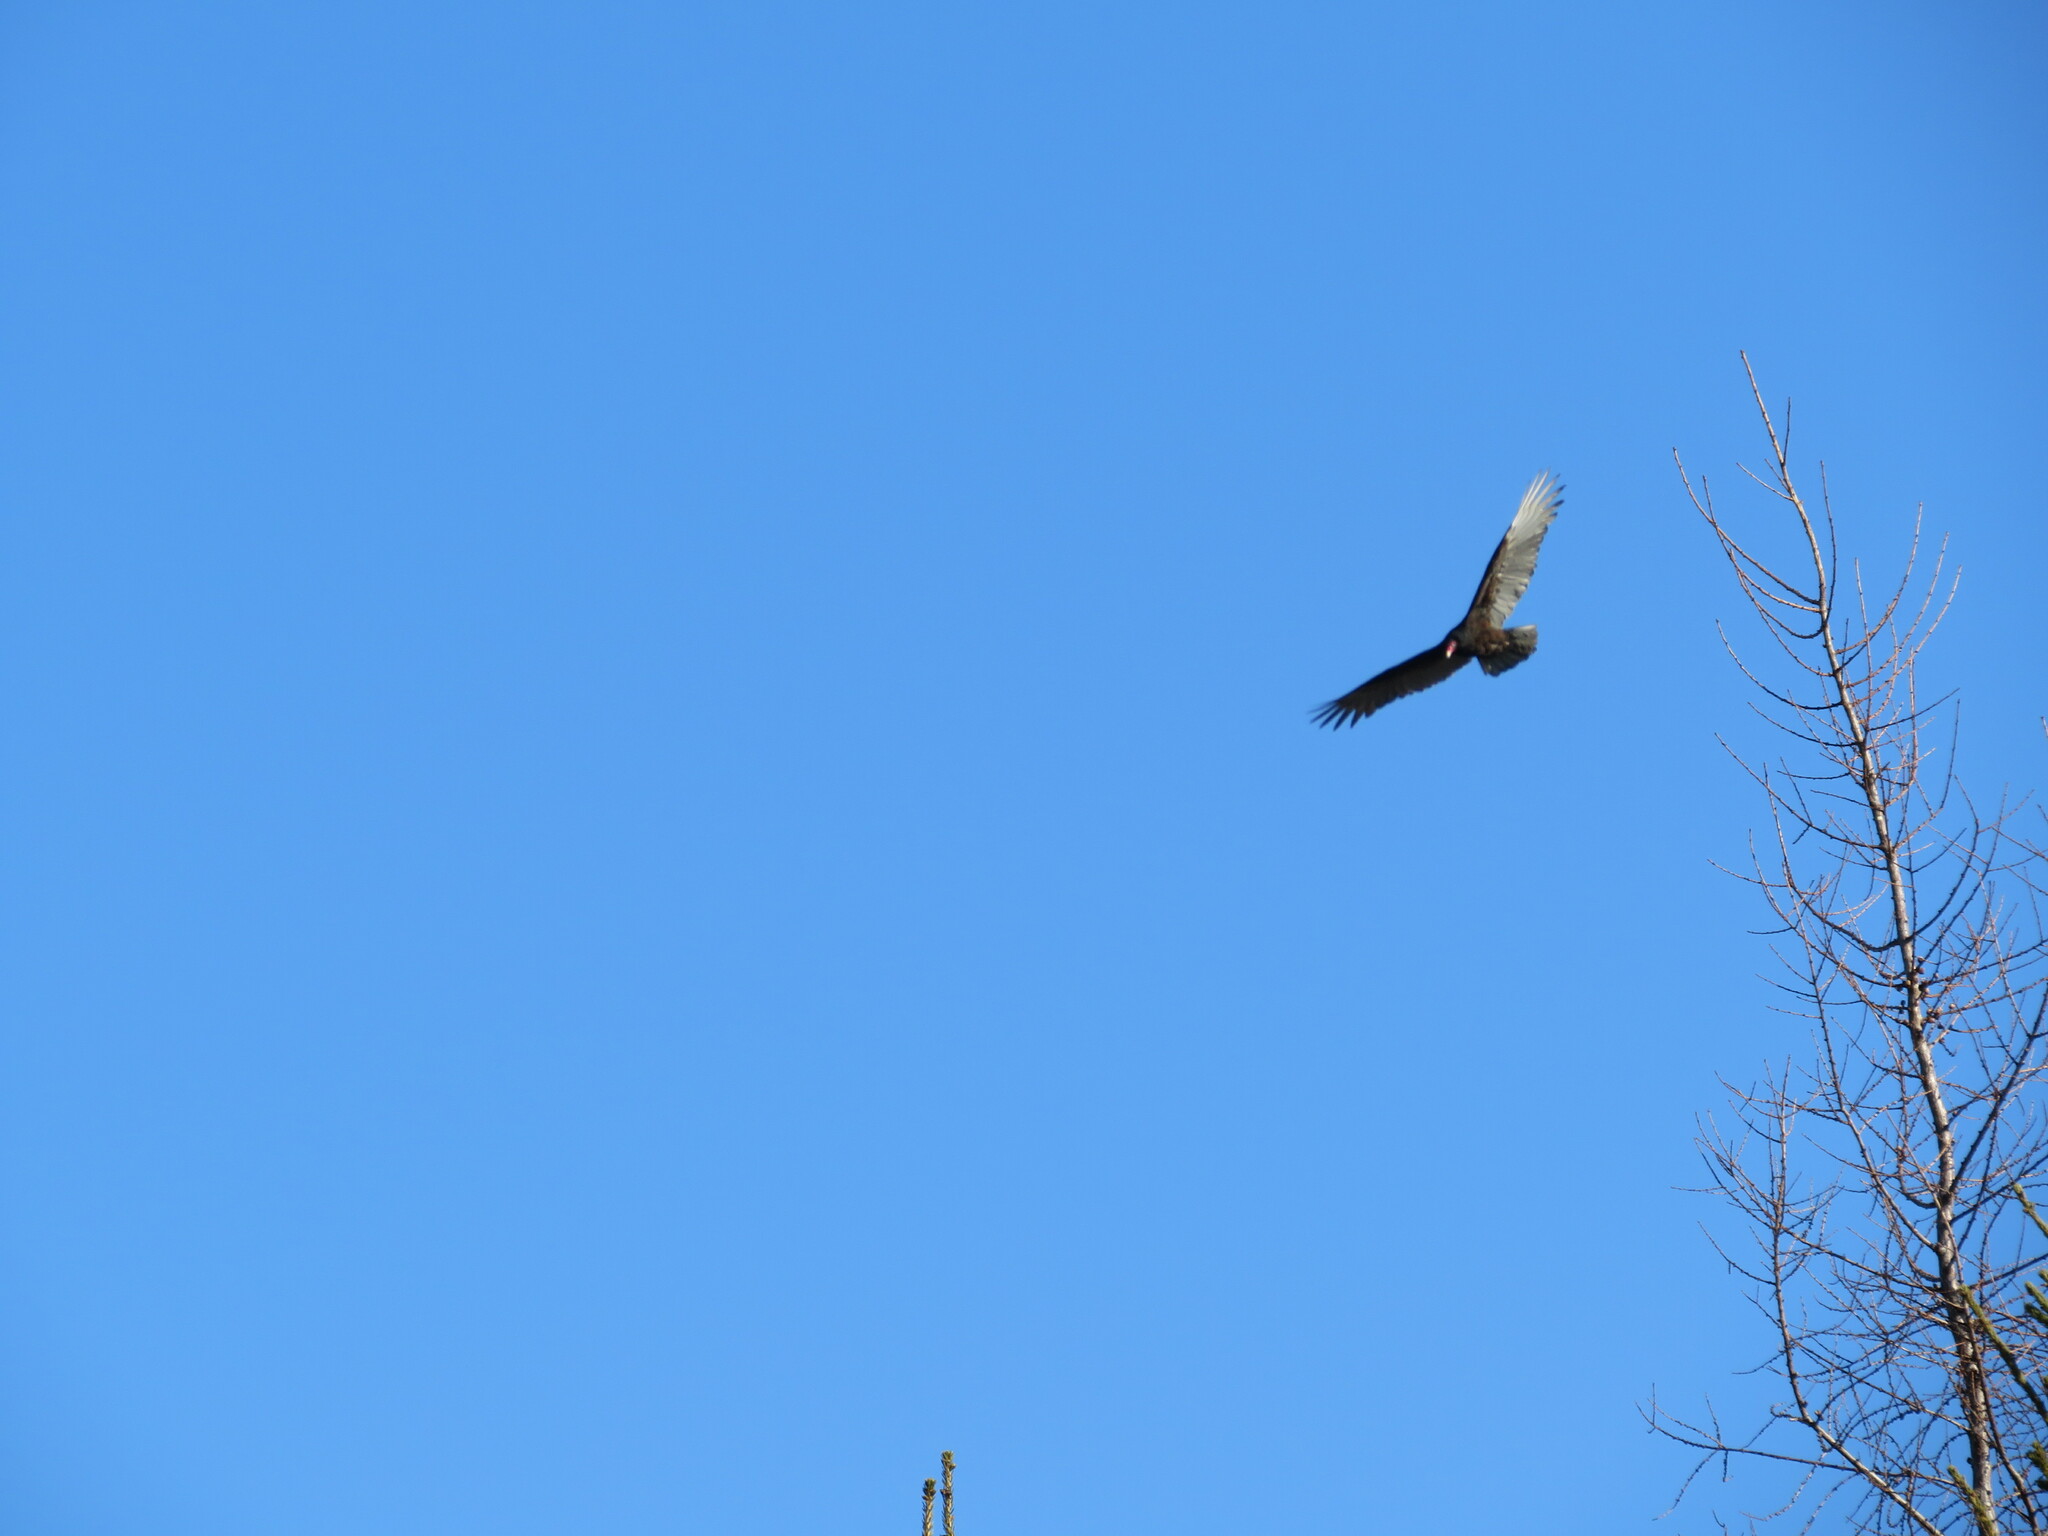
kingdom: Animalia
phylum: Chordata
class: Aves
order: Accipitriformes
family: Cathartidae
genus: Cathartes
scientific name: Cathartes aura
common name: Turkey vulture
